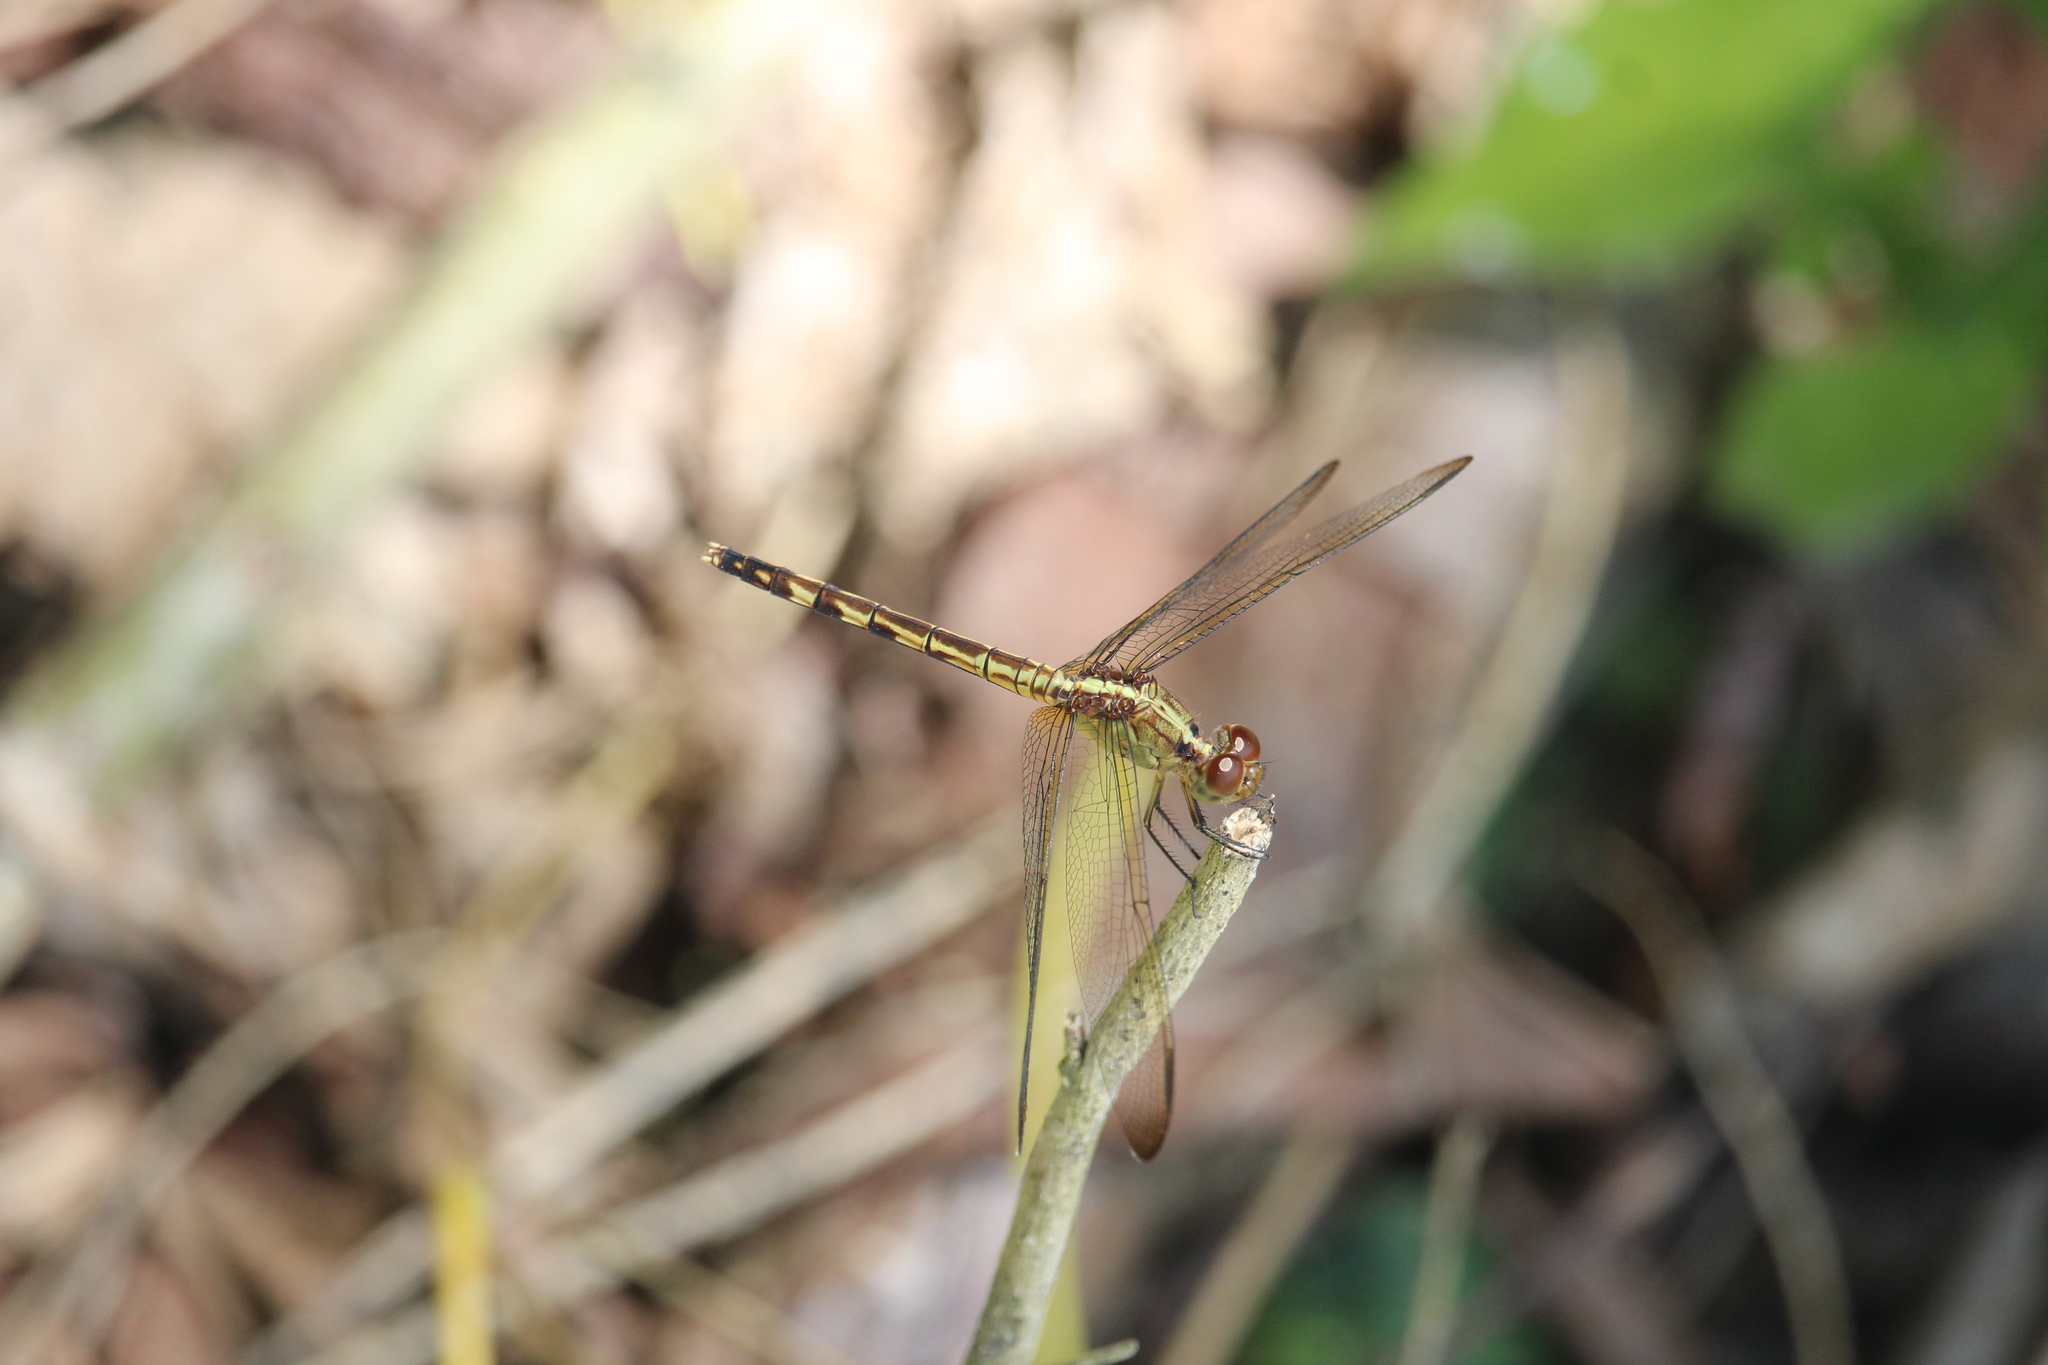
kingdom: Animalia
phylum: Arthropoda
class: Insecta
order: Odonata
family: Libellulidae
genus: Erythrodiplax
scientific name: Erythrodiplax umbrata
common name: Band-winged dragonlet
